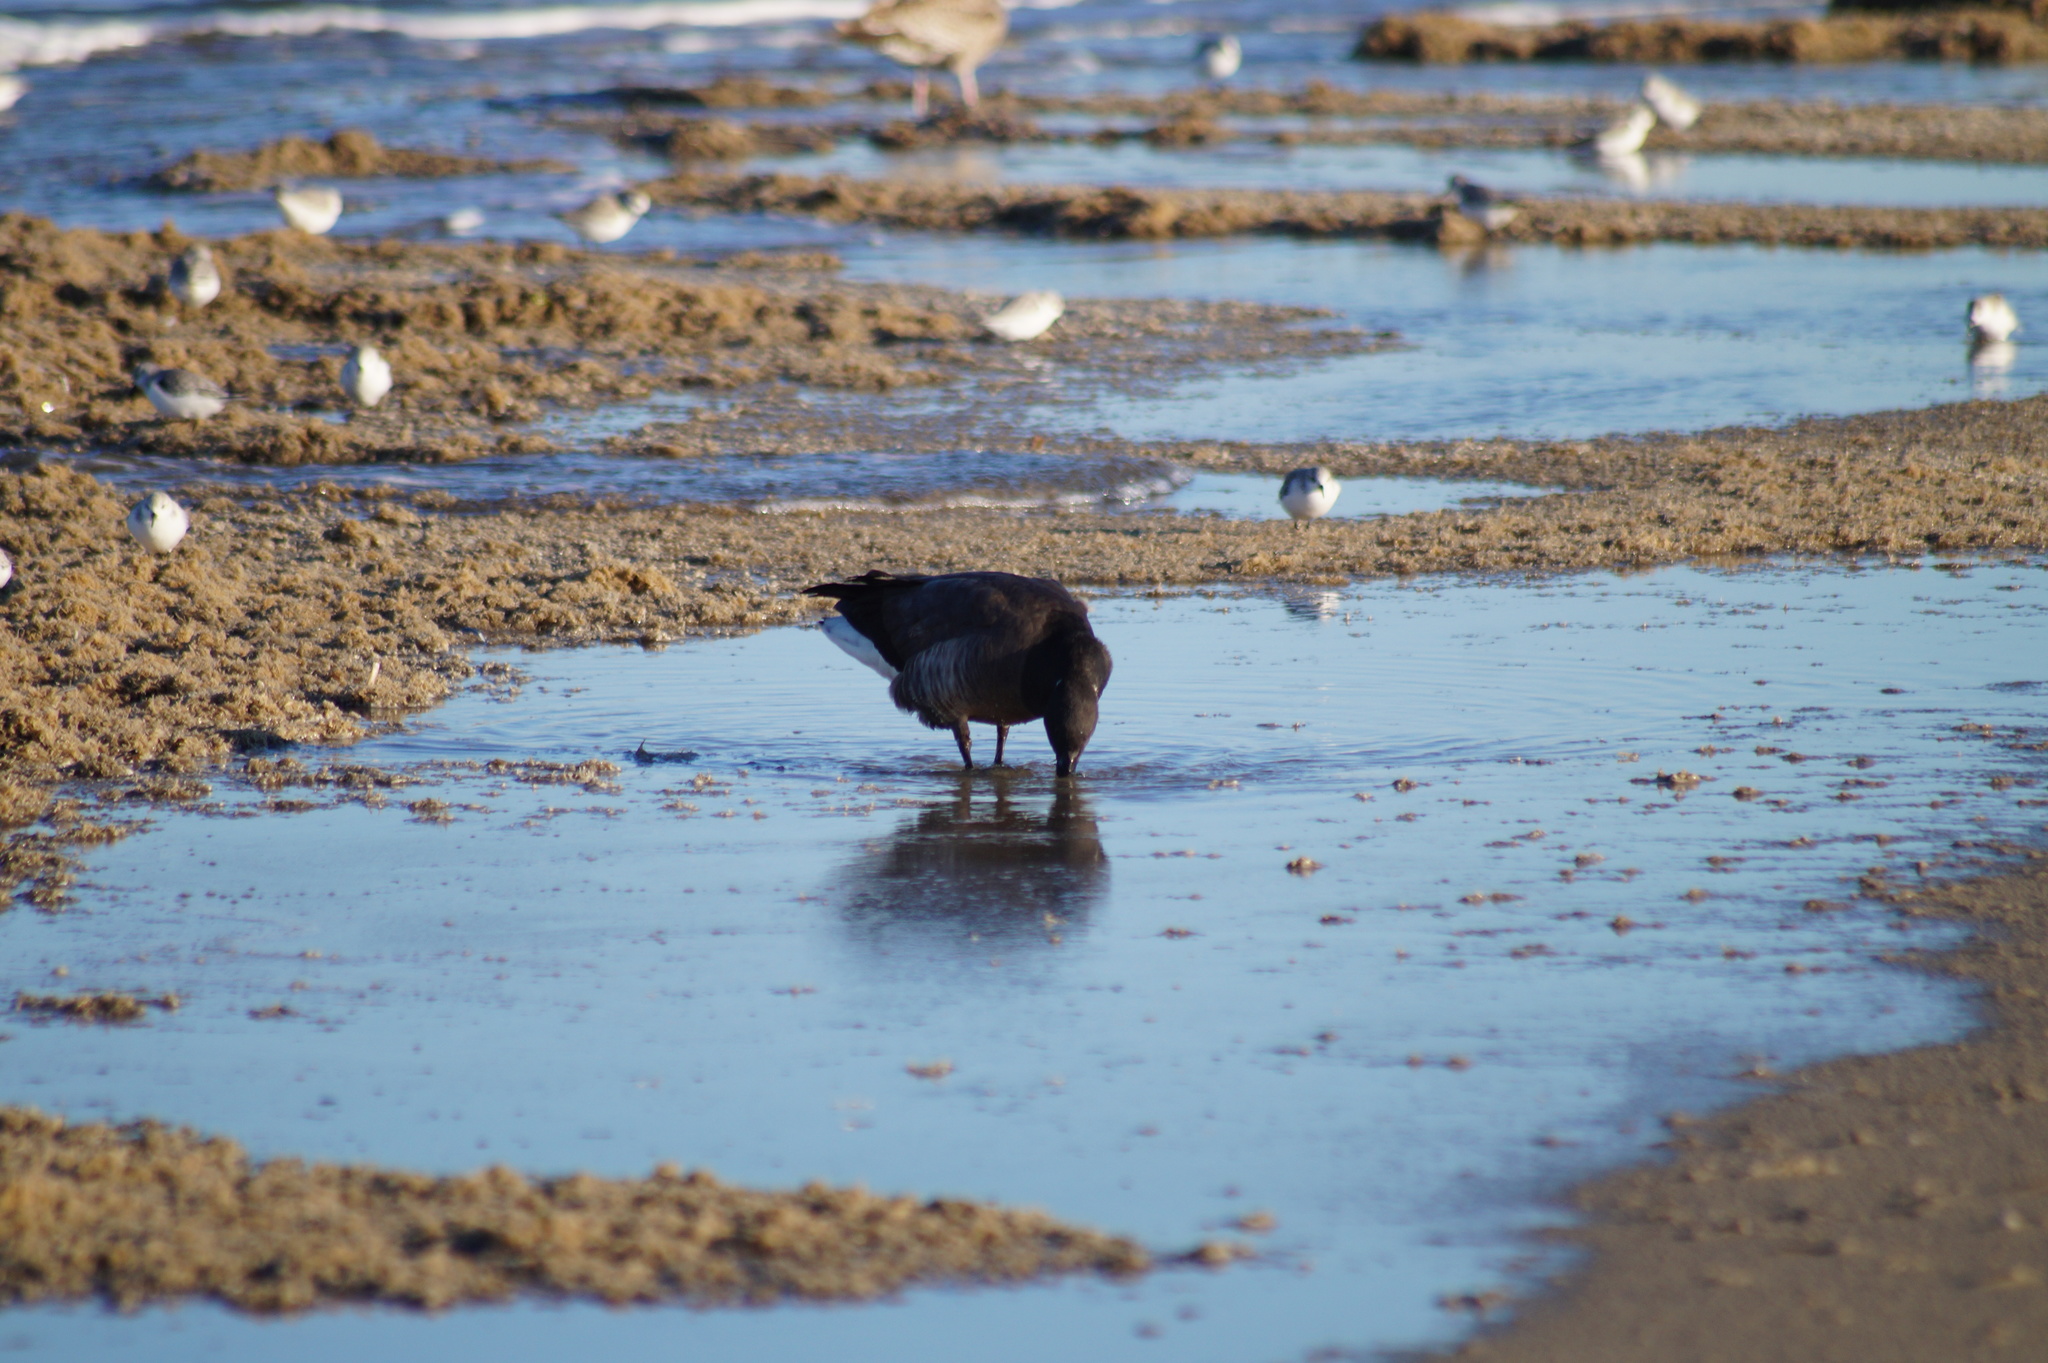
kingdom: Animalia
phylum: Chordata
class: Aves
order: Anseriformes
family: Anatidae
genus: Branta
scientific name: Branta bernicla
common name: Brant goose
